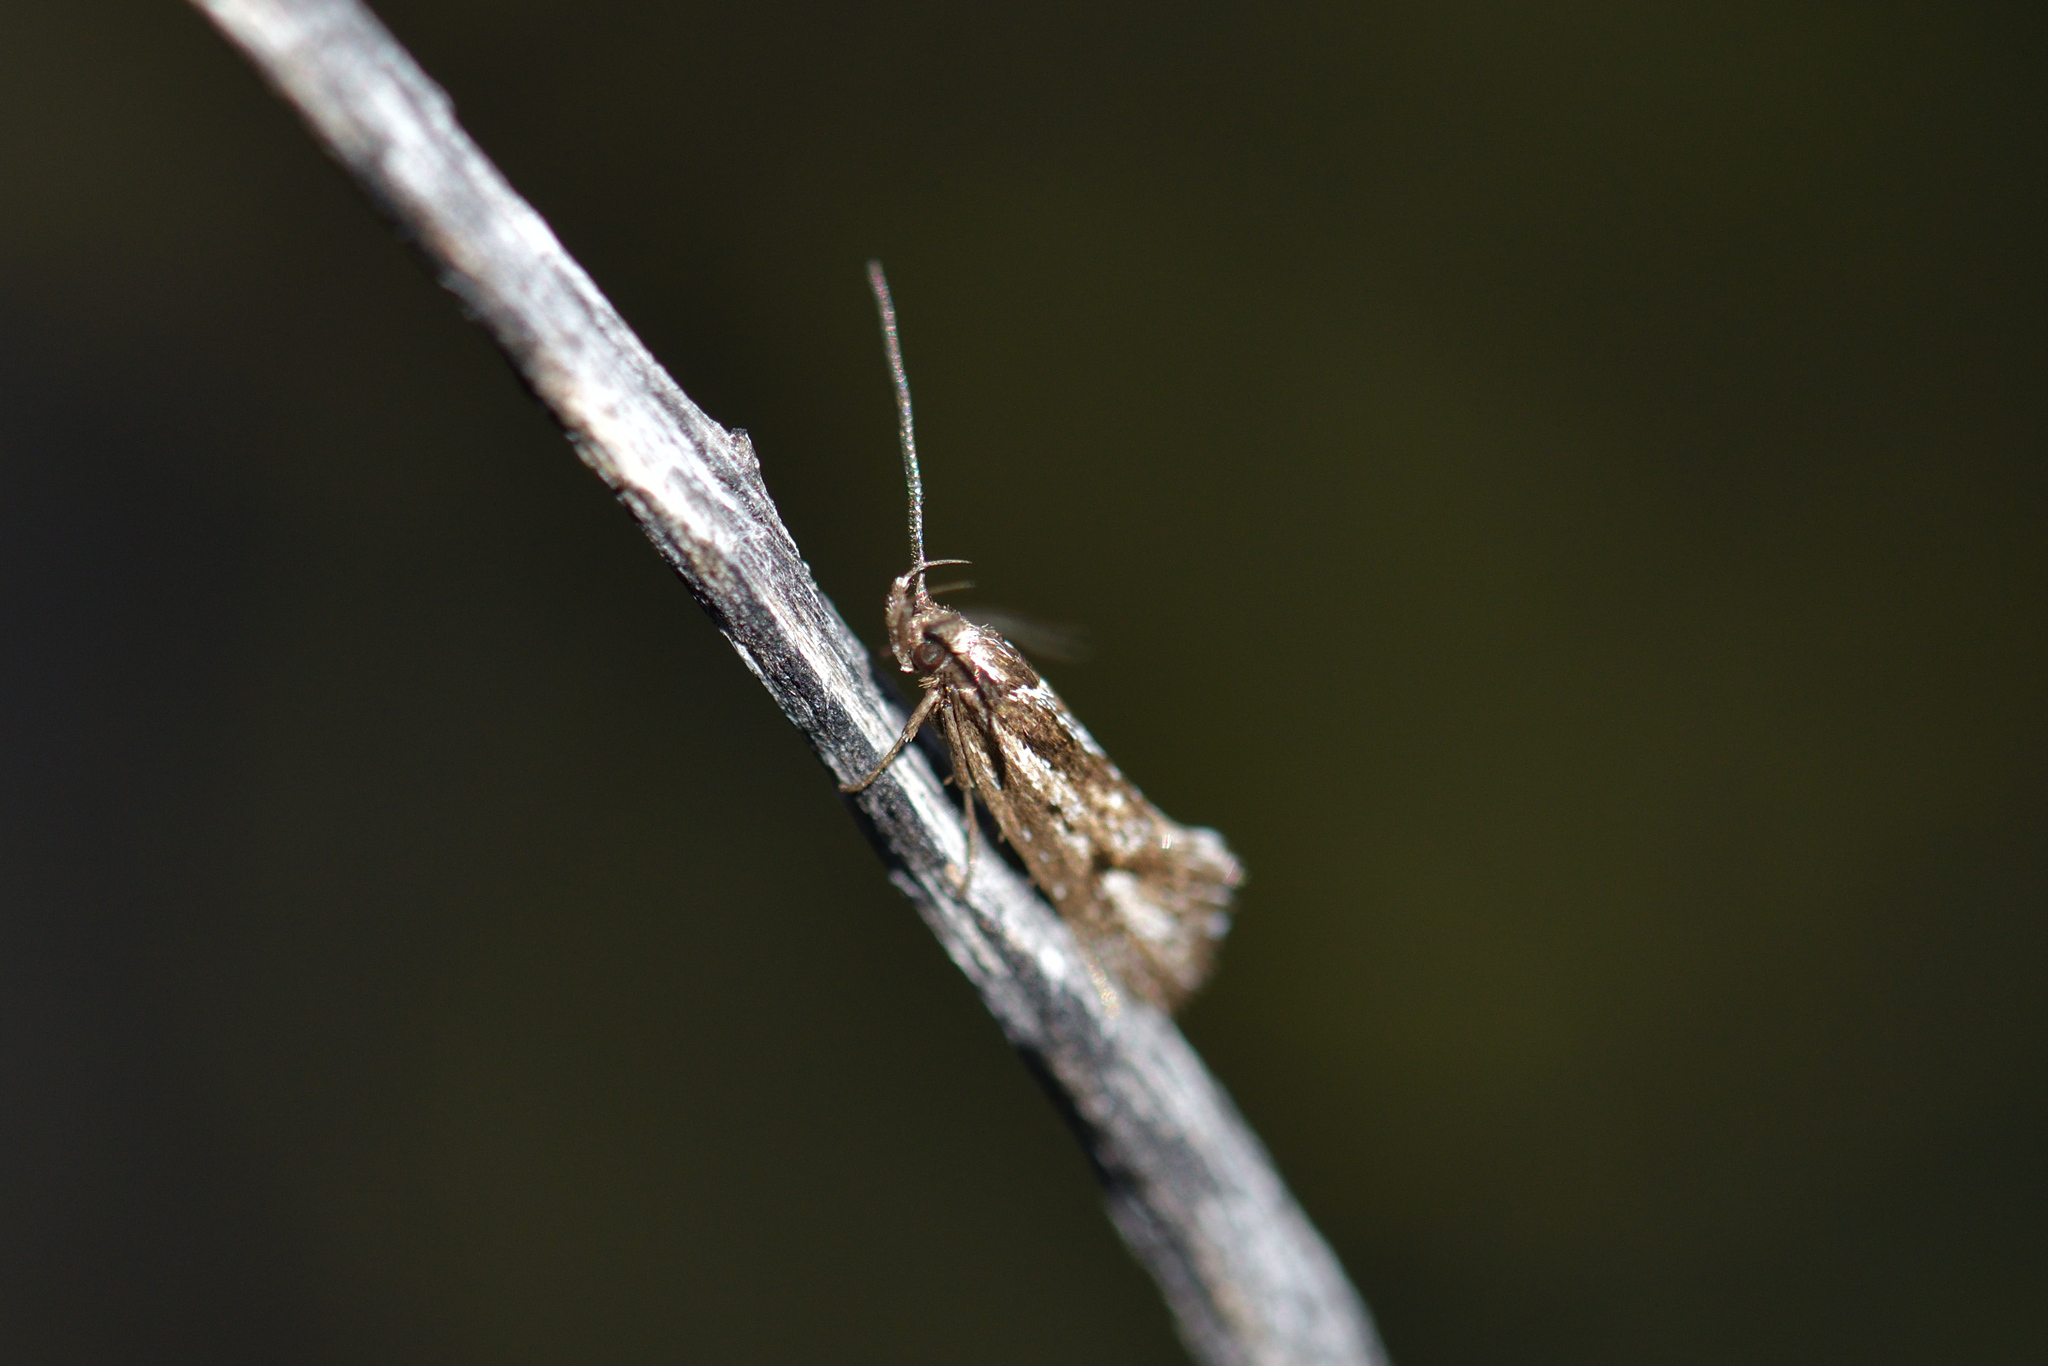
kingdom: Animalia
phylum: Arthropoda
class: Insecta
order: Lepidoptera
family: Oecophoridae
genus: Prepalla
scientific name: Prepalla
